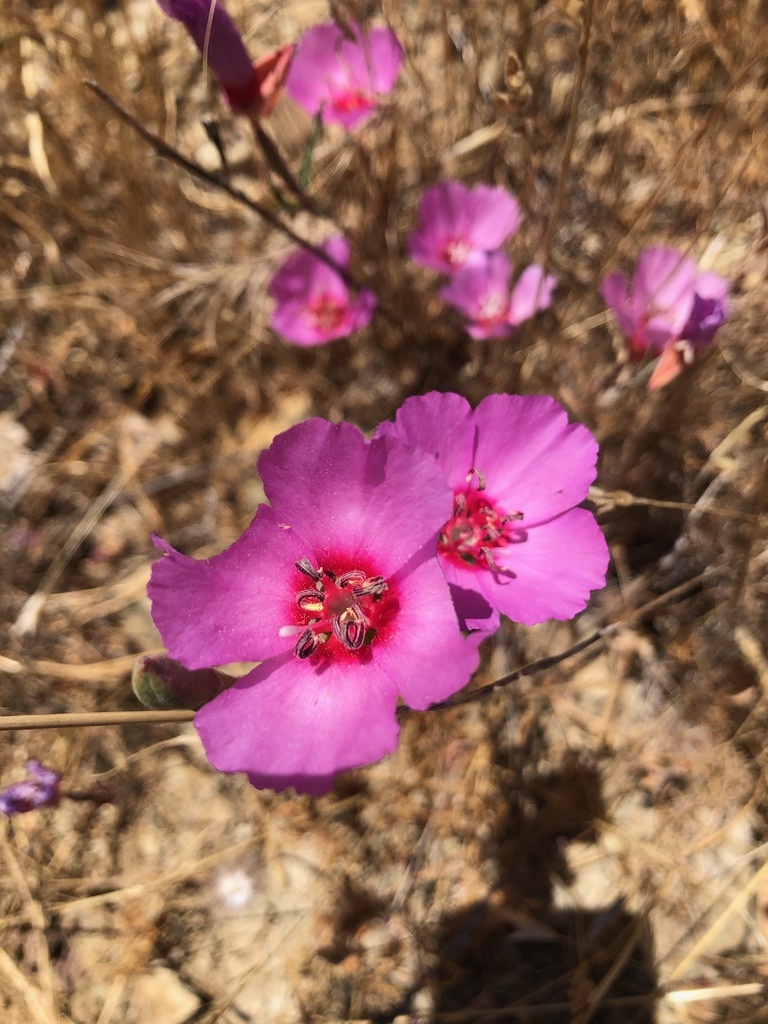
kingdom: Plantae
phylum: Tracheophyta
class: Magnoliopsida
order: Myrtales
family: Onagraceae
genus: Clarkia
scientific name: Clarkia rubicunda
